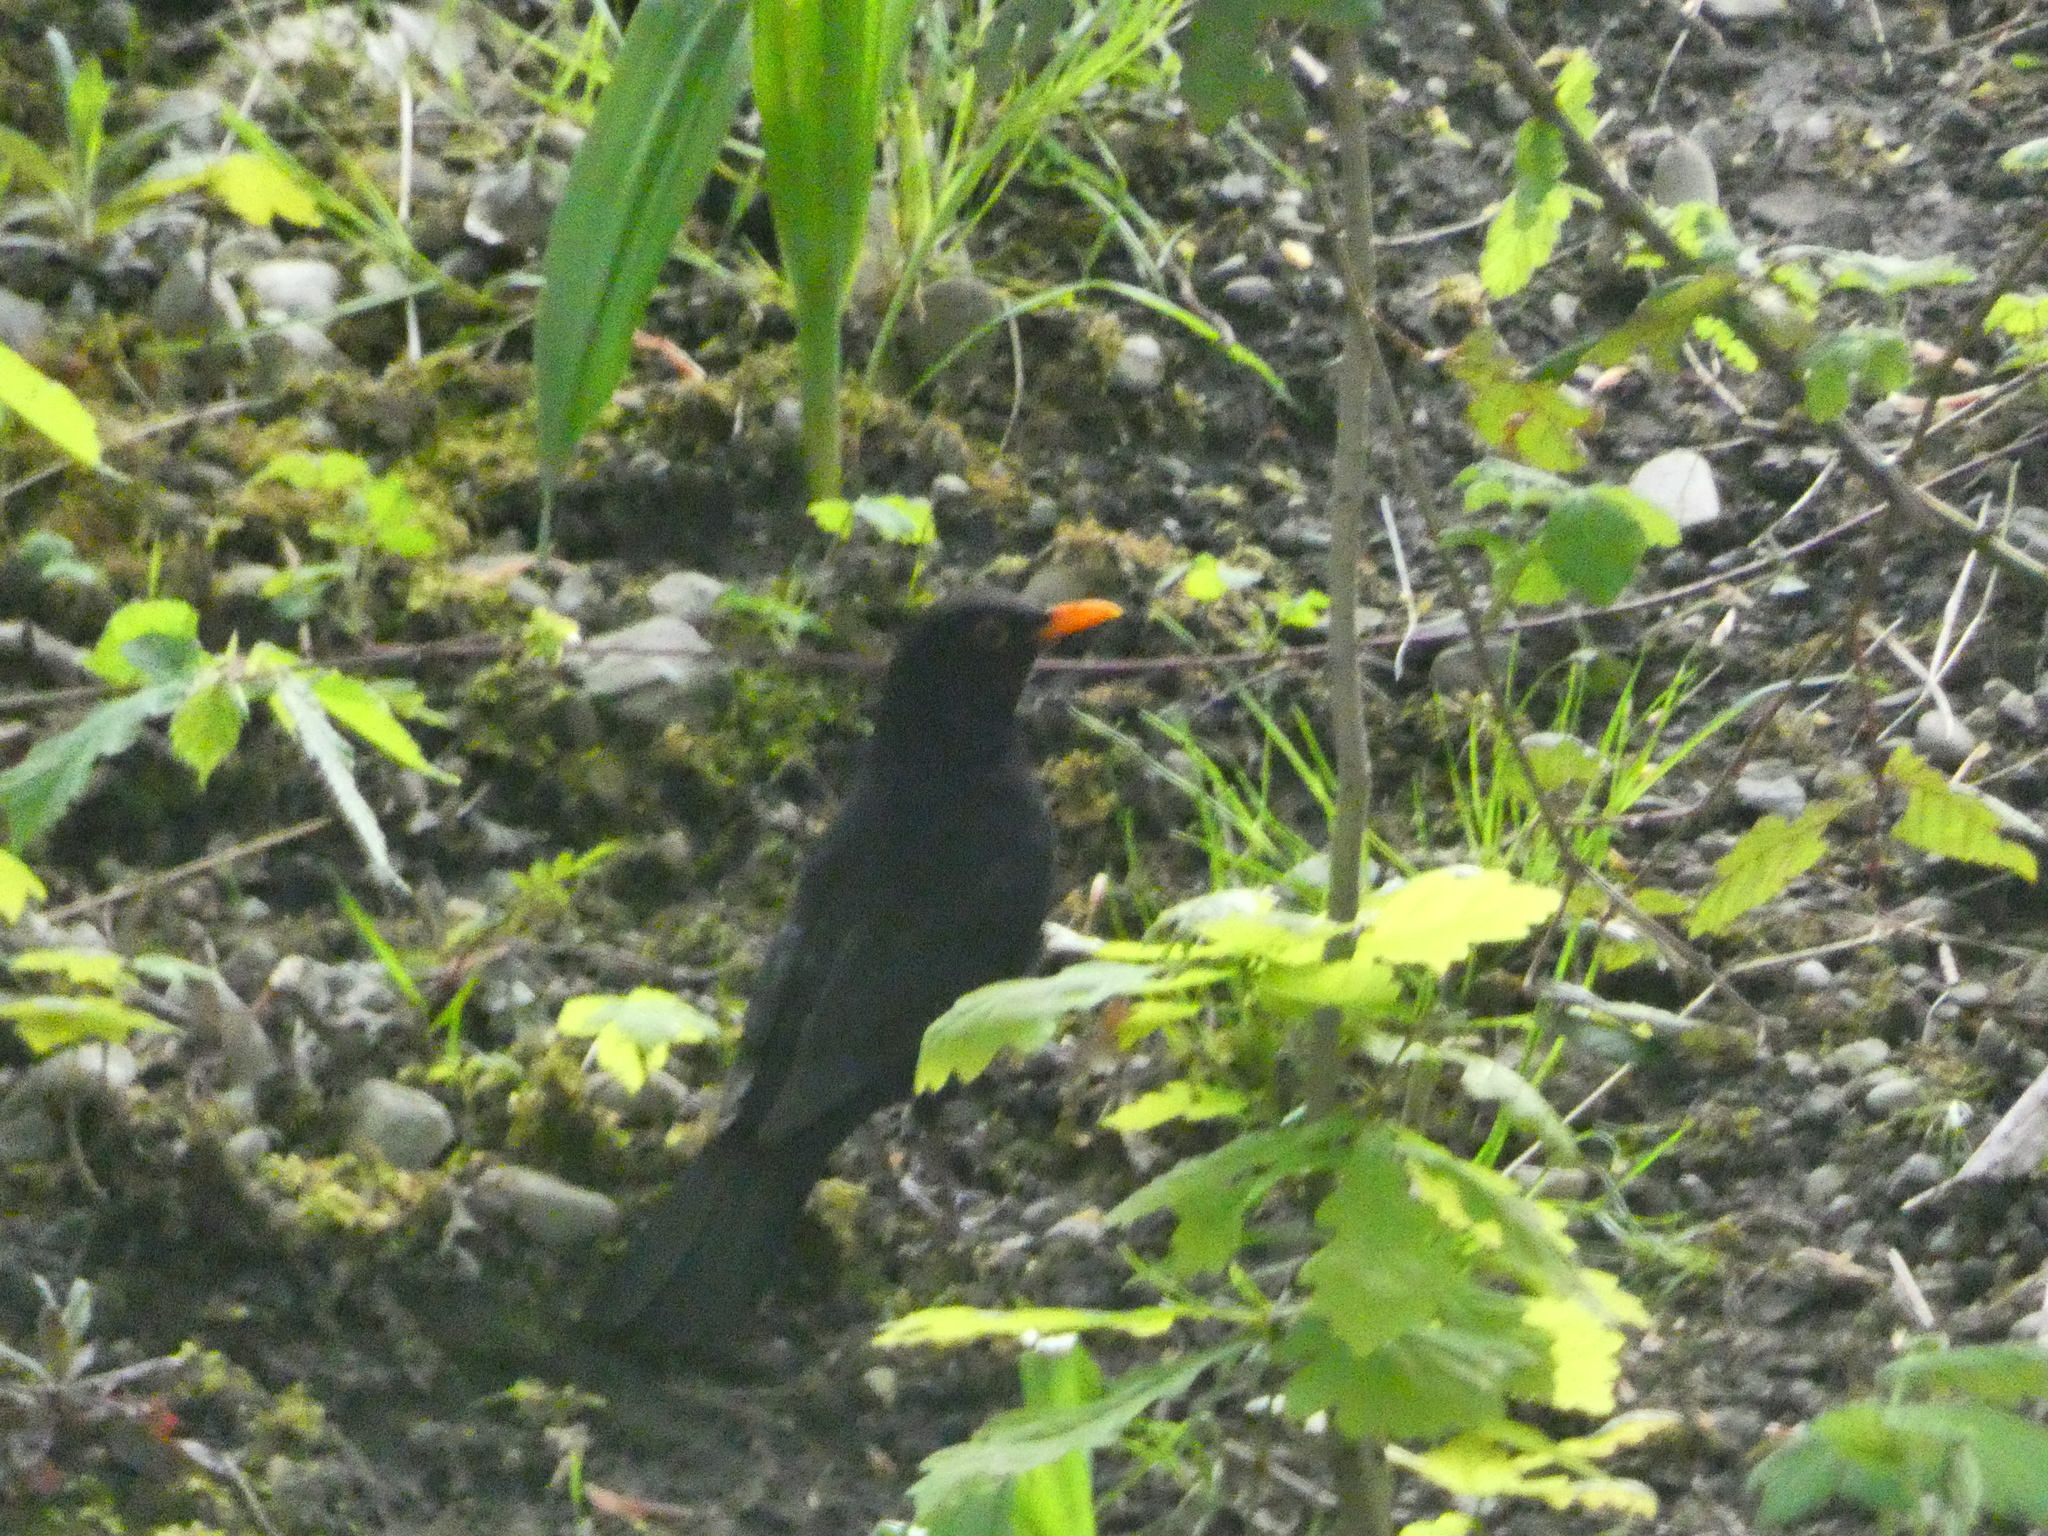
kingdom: Animalia
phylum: Chordata
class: Aves
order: Passeriformes
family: Turdidae
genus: Turdus
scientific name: Turdus merula
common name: Common blackbird
